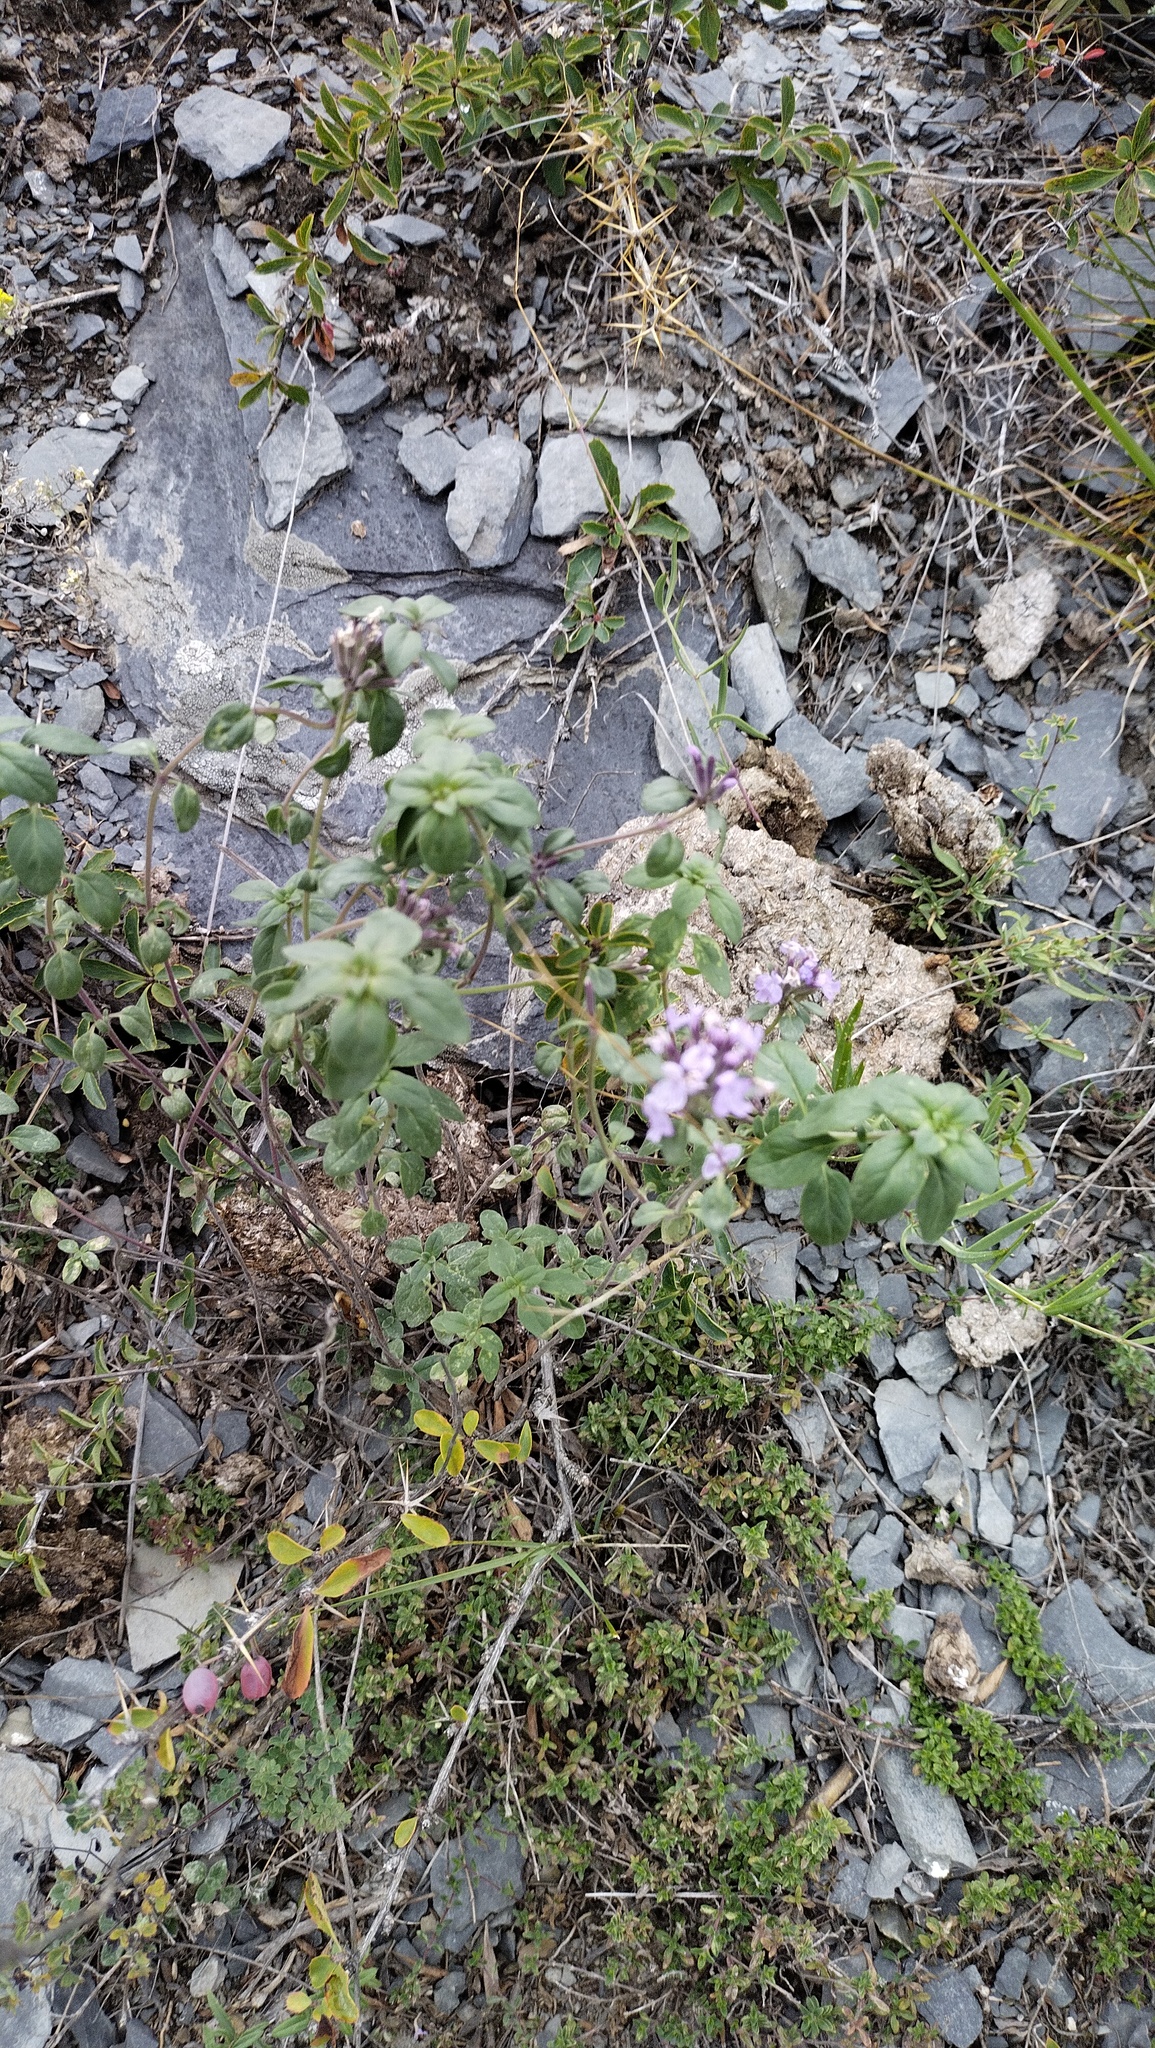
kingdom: Plantae
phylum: Tracheophyta
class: Magnoliopsida
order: Lamiales
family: Lamiaceae
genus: Ziziphora
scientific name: Ziziphora clinopodioides
